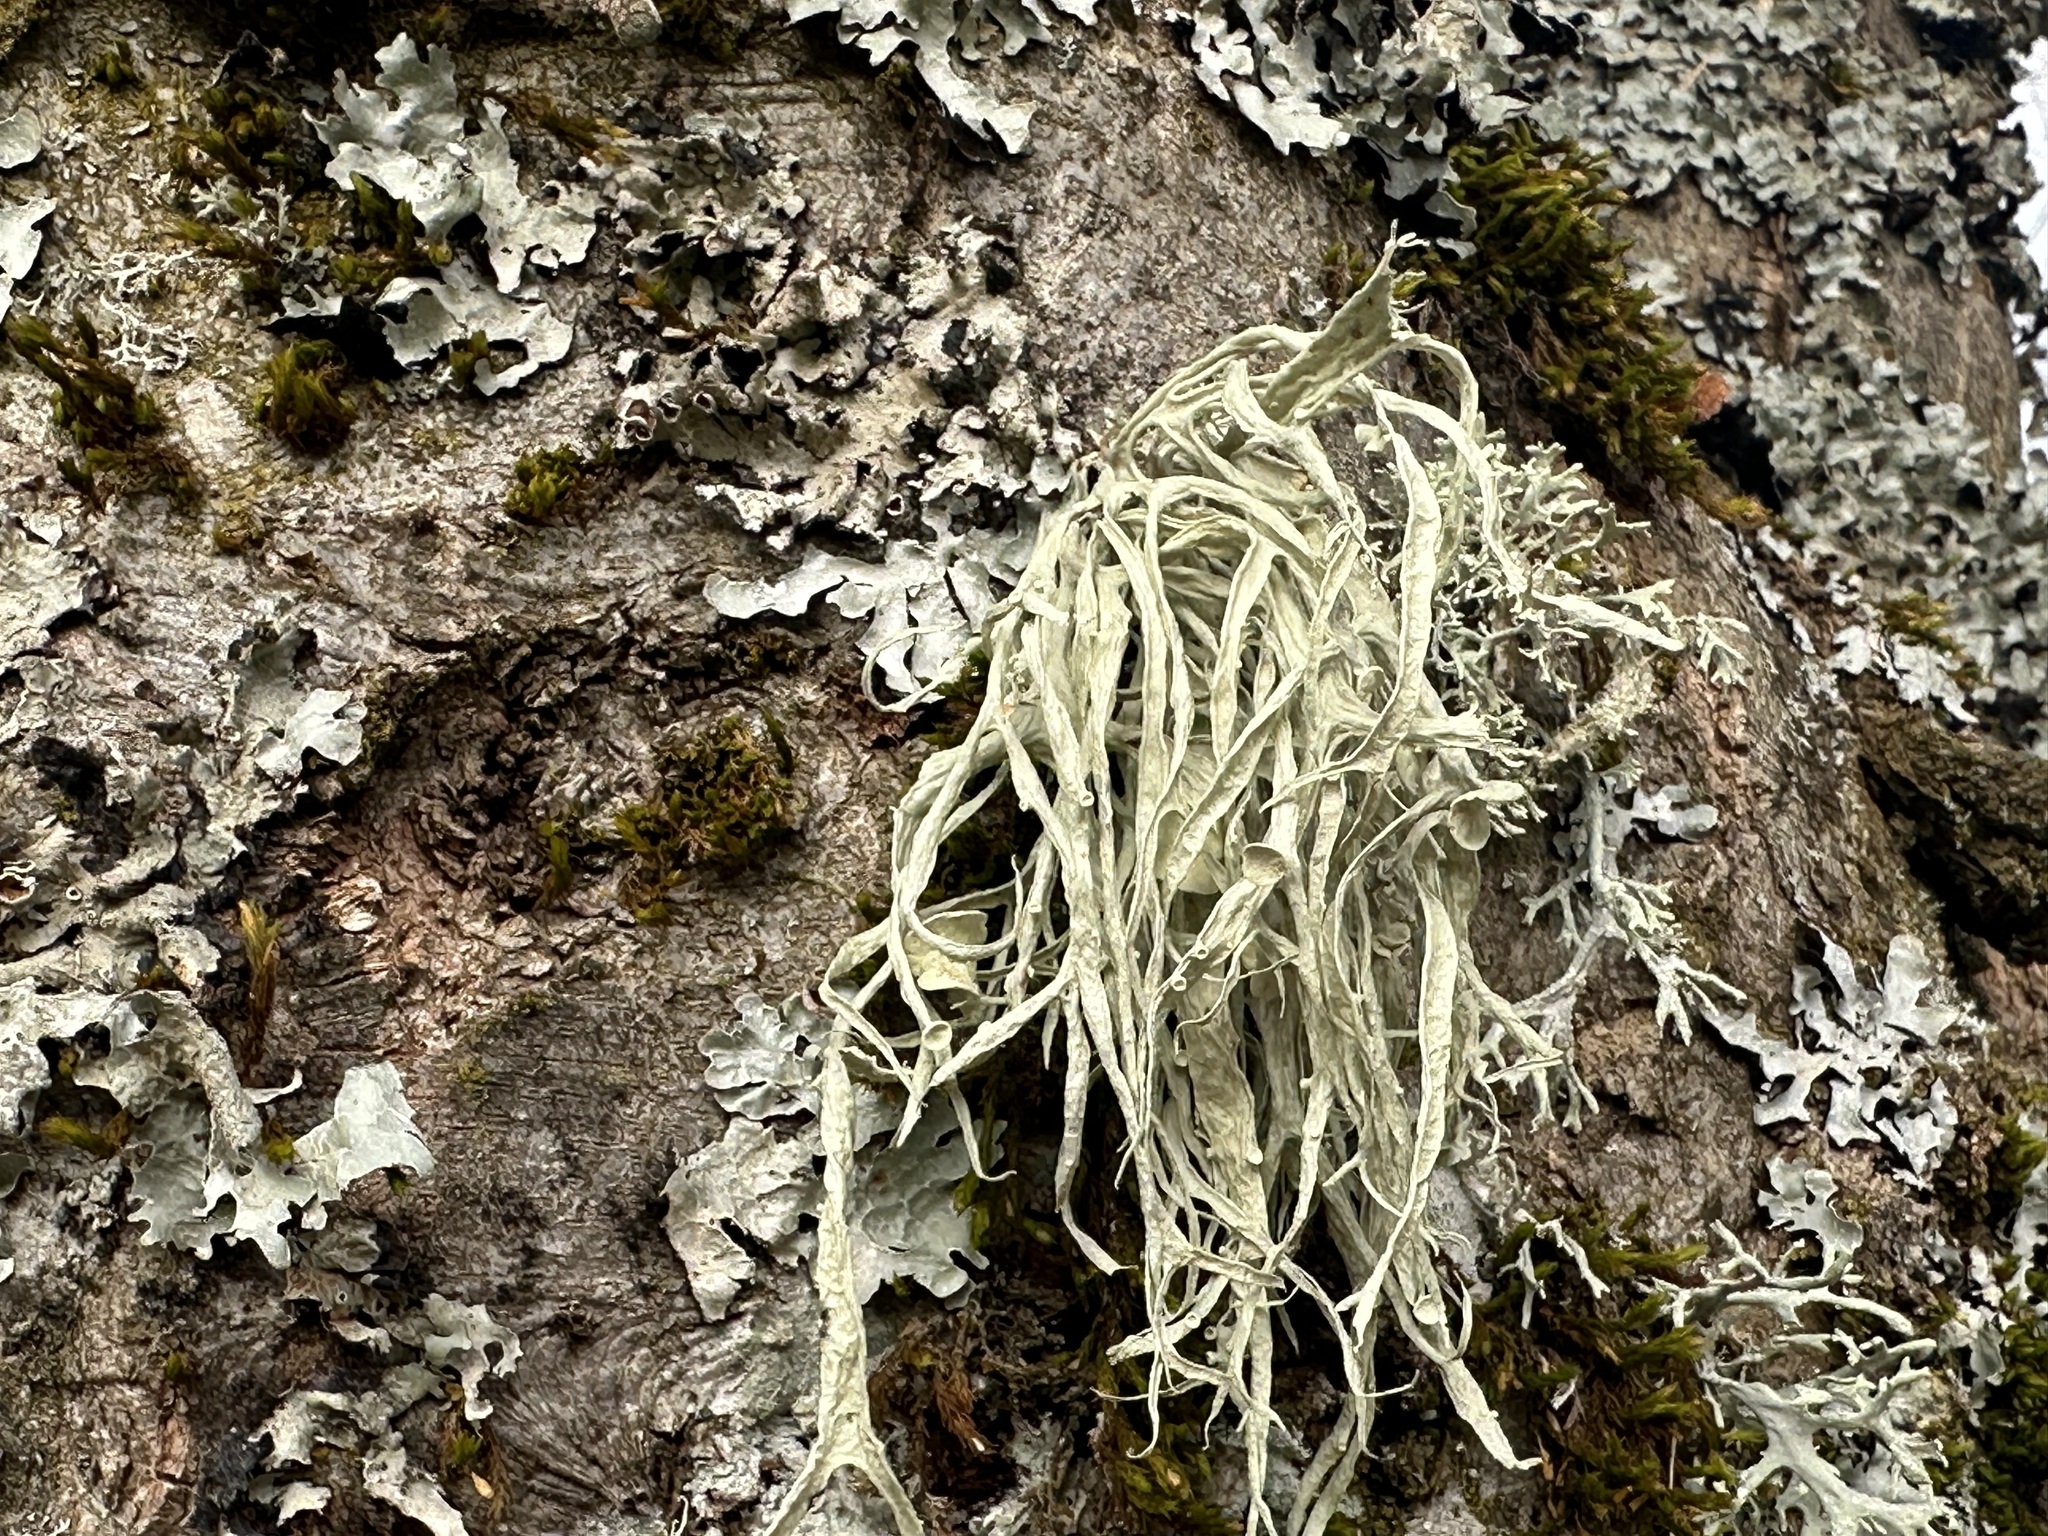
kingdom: Fungi
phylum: Ascomycota
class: Lecanoromycetes
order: Lecanorales
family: Ramalinaceae
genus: Ramalina
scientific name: Ramalina fraxinea
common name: Cartilage lichen
